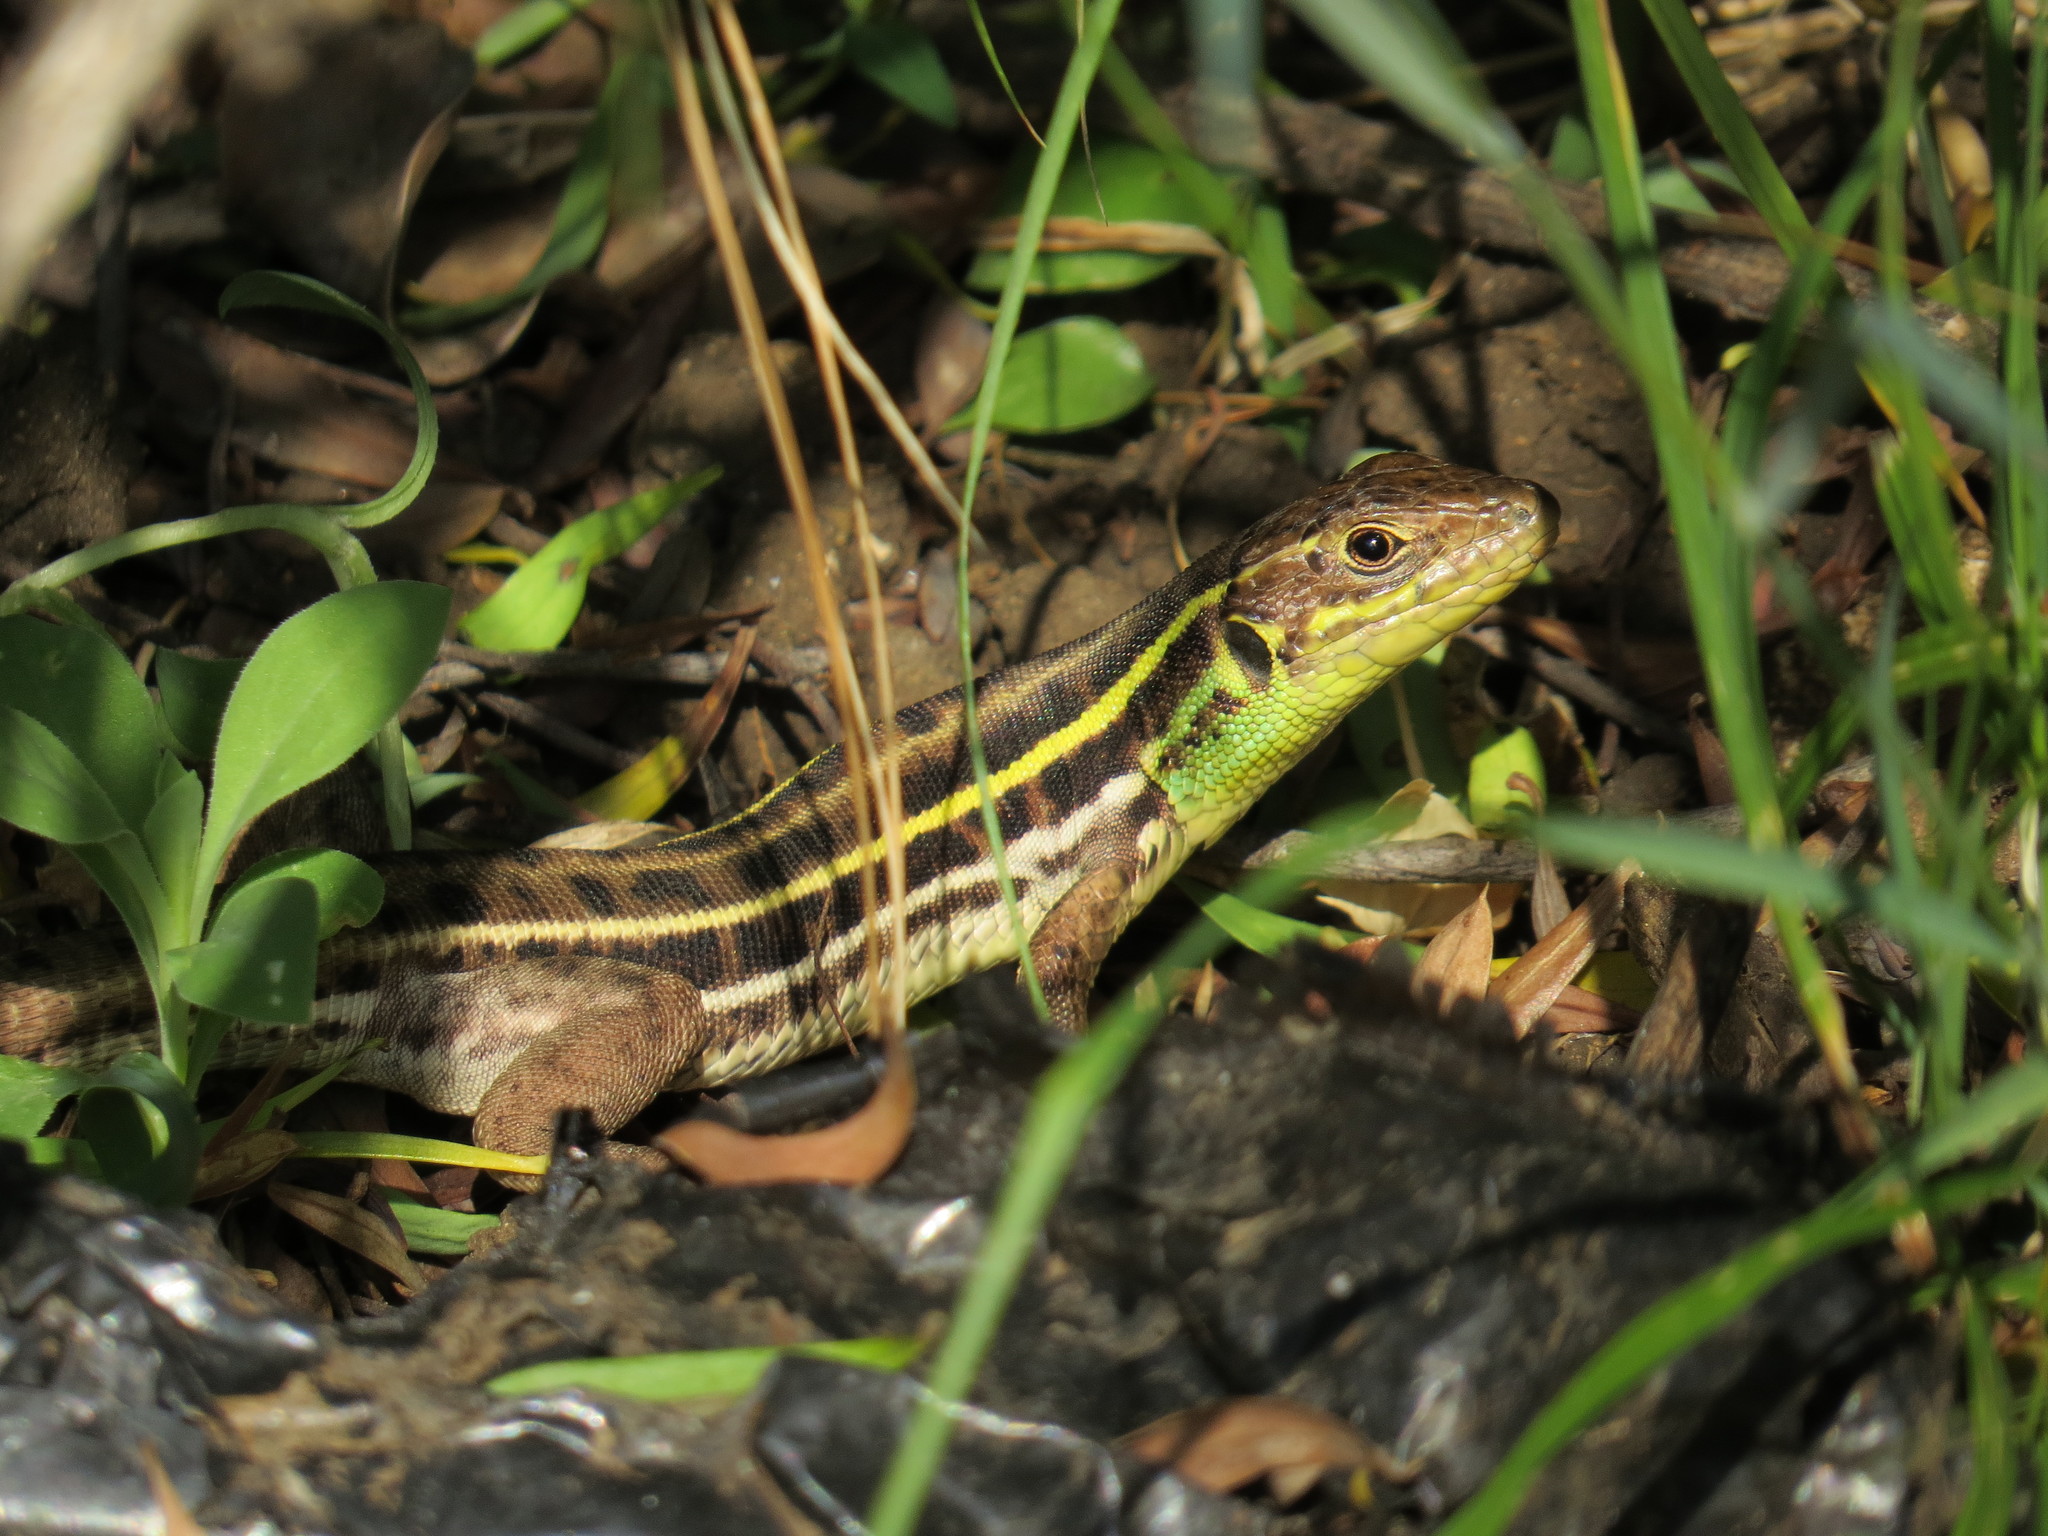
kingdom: Animalia
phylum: Chordata
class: Squamata
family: Lacertidae
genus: Lacerta
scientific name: Lacerta diplochondrodes
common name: Rhodos green lizard
